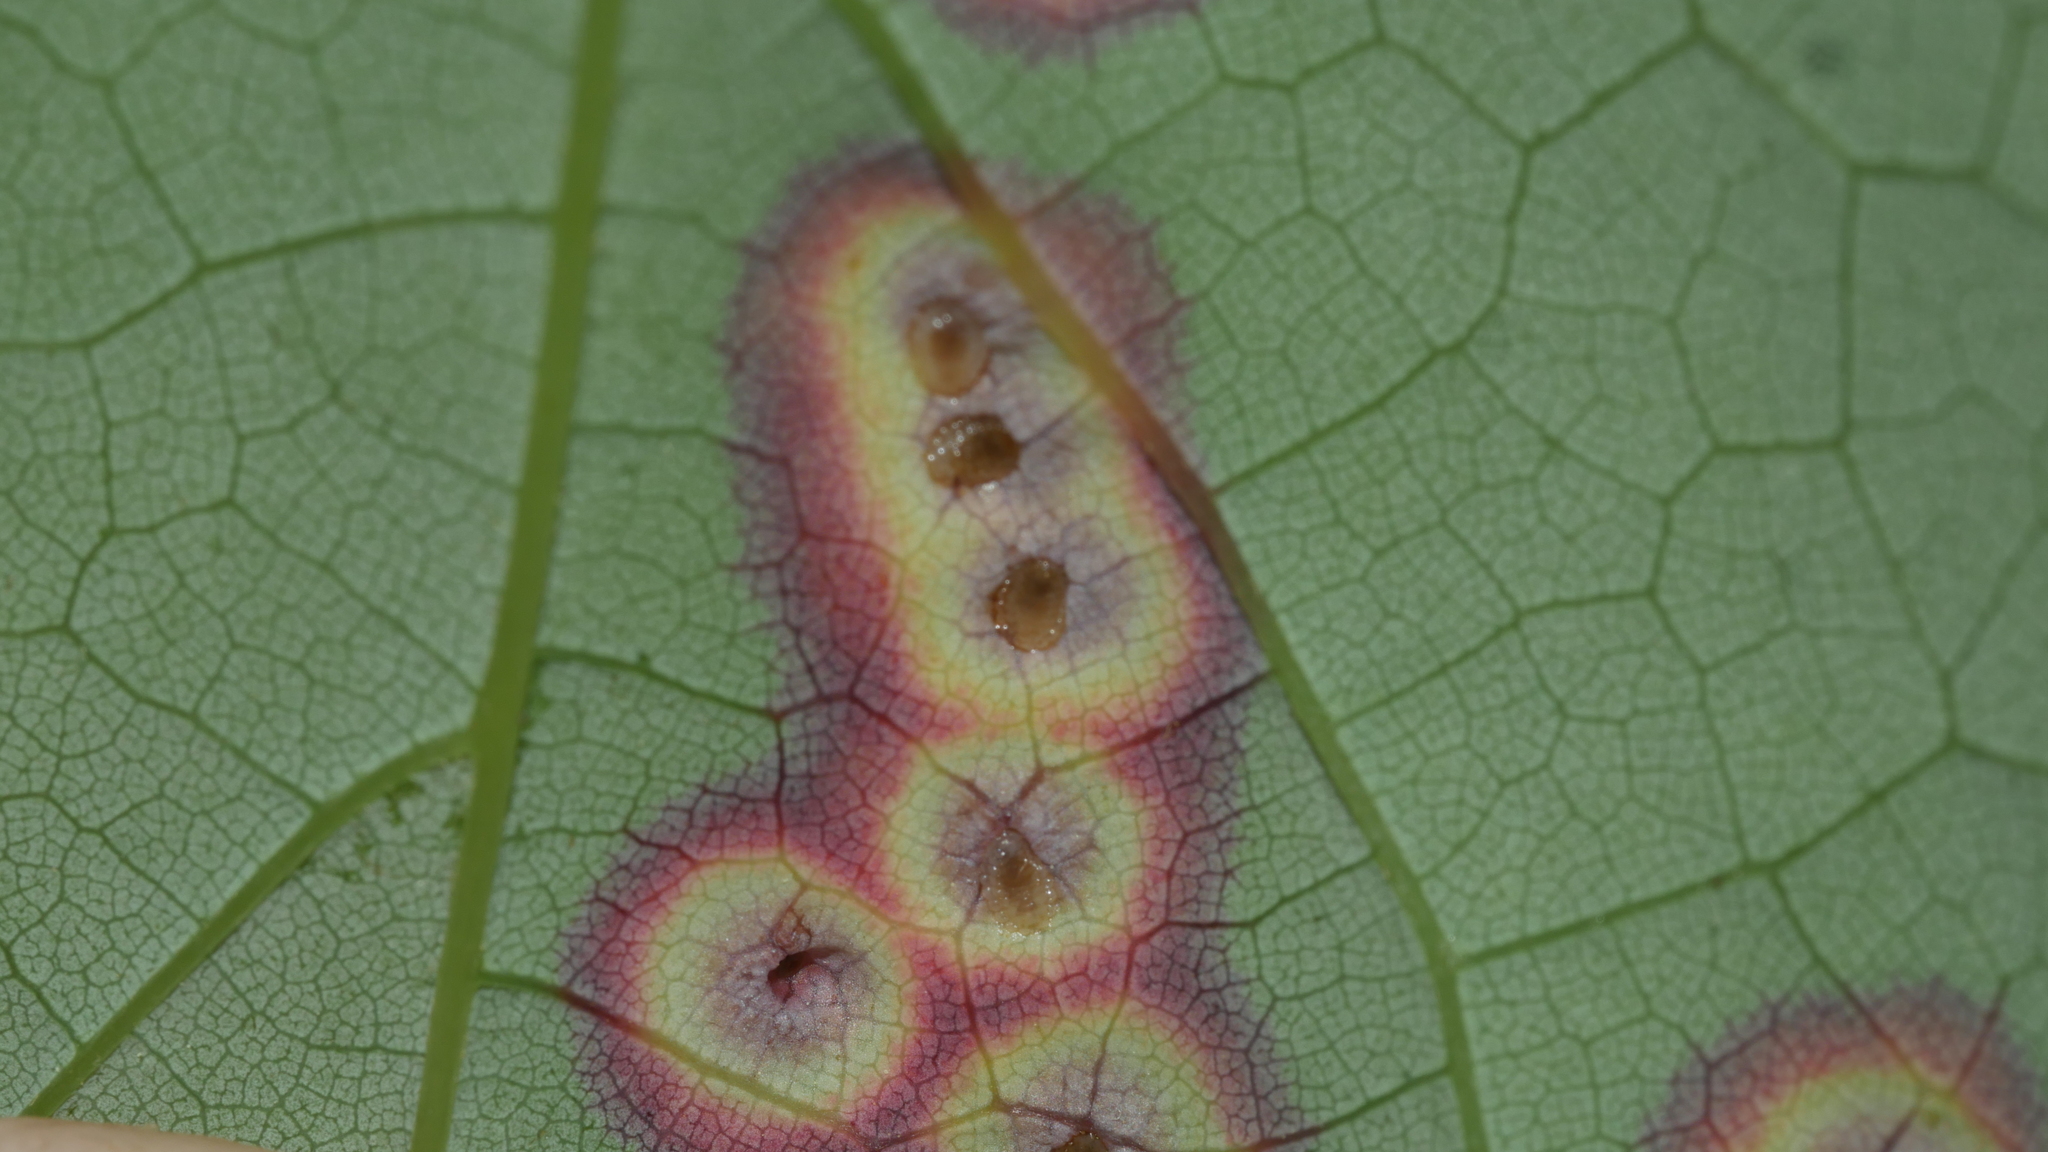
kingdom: Animalia
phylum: Arthropoda
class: Insecta
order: Diptera
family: Cecidomyiidae
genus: Acericecis
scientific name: Acericecis ocellaris
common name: Ocellate gall midge
